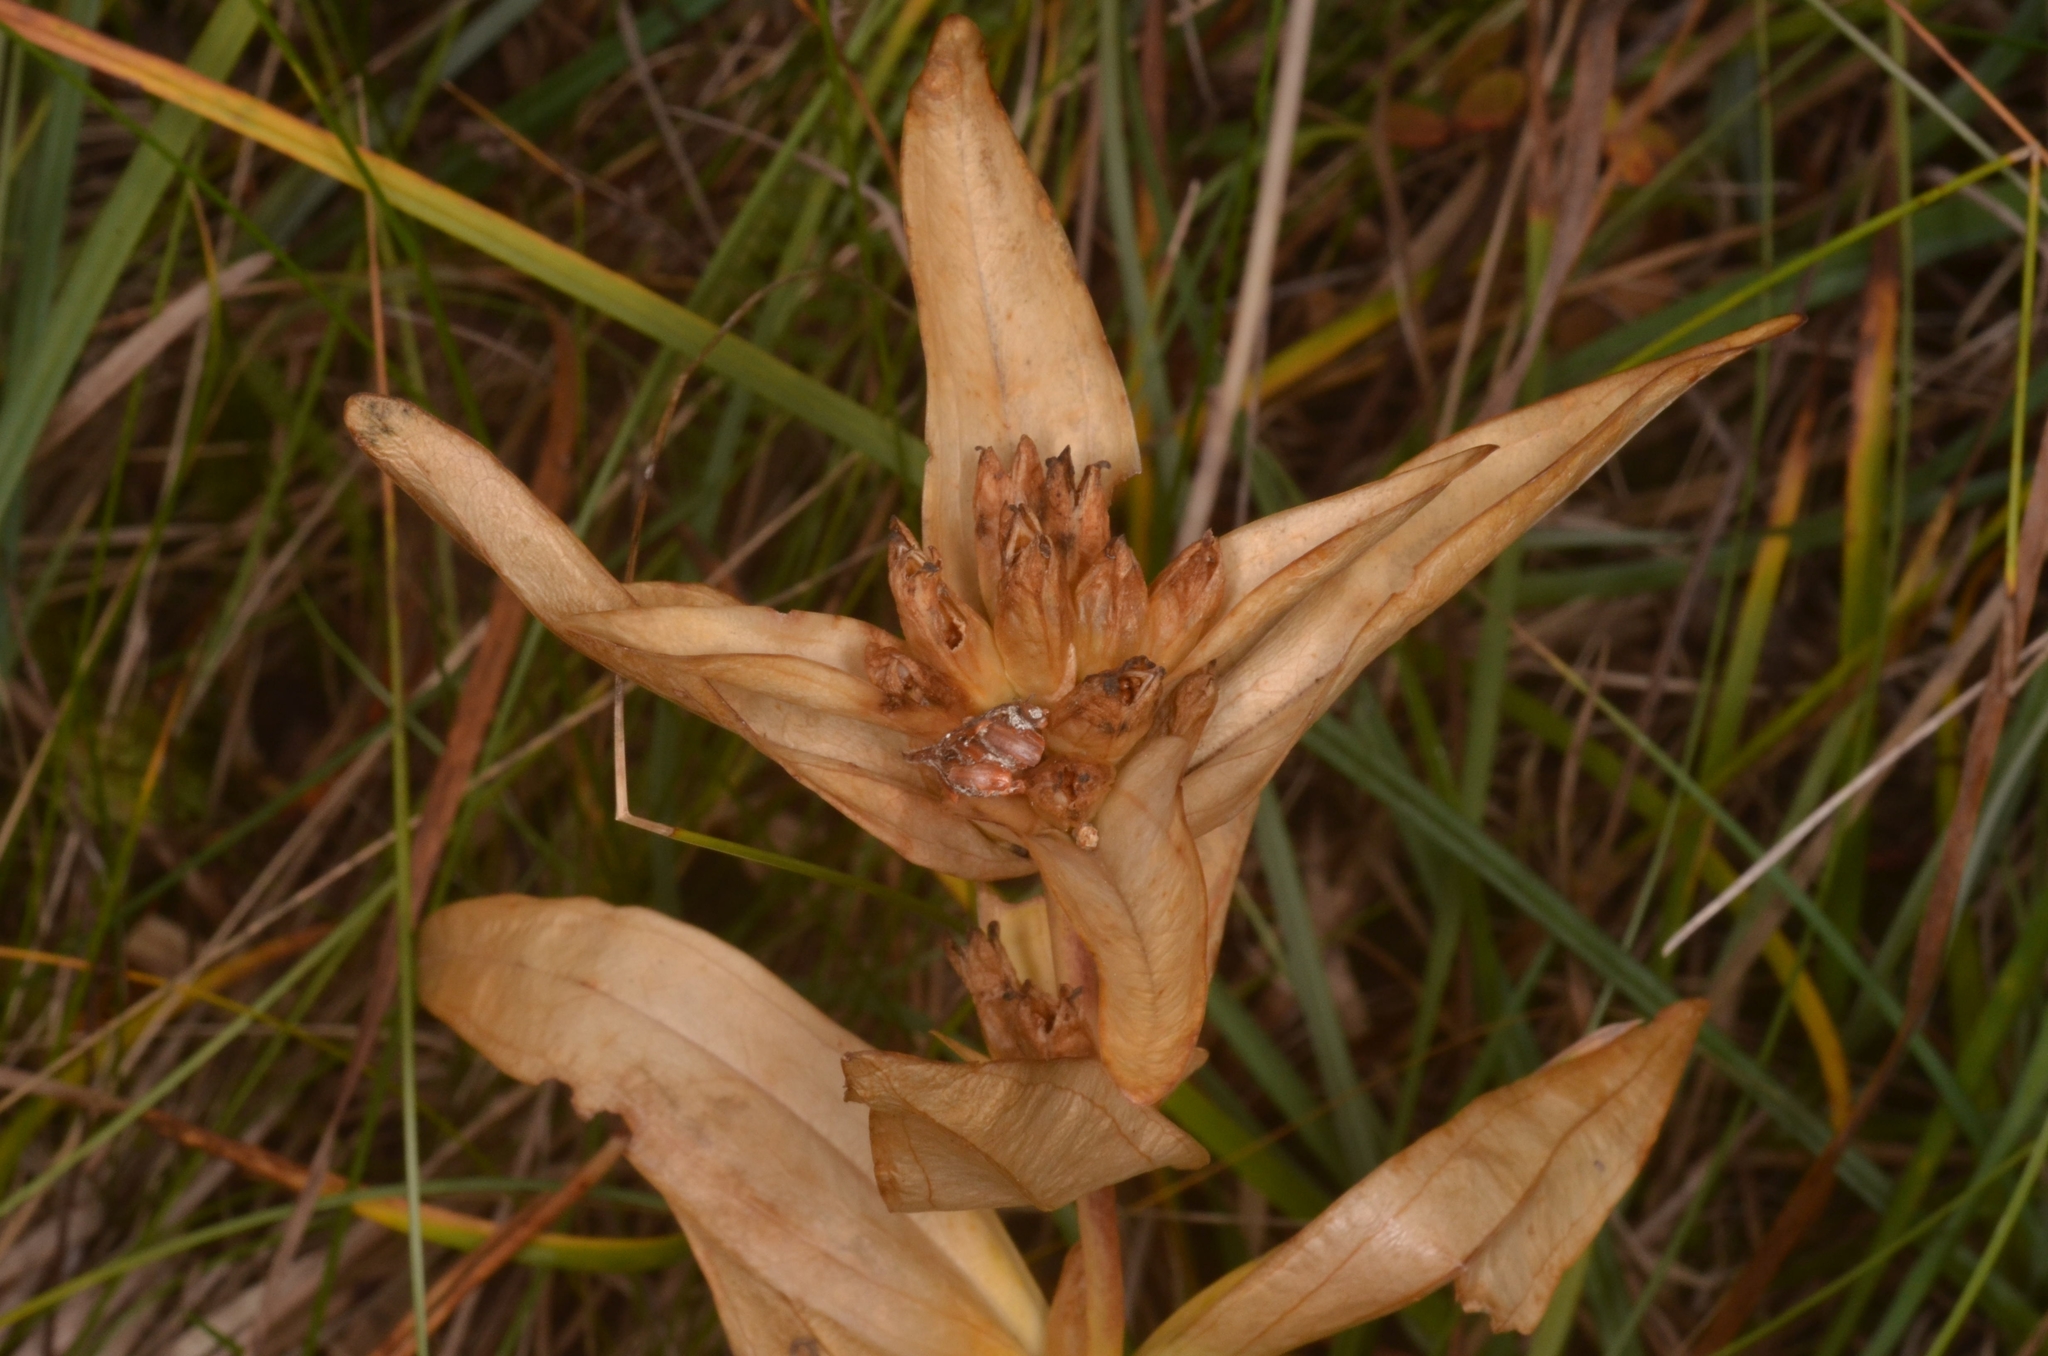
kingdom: Plantae
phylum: Tracheophyta
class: Magnoliopsida
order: Gentianales
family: Gentianaceae
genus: Gentiana
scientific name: Gentiana cruciata
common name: Cross gentian
